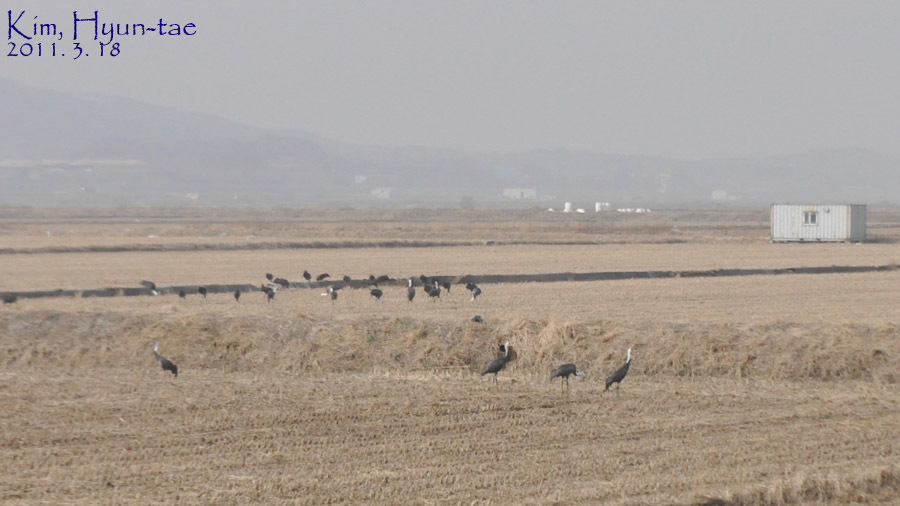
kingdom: Animalia
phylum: Chordata
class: Aves
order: Gruiformes
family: Gruidae
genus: Grus
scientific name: Grus monacha
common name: Hooded crane
